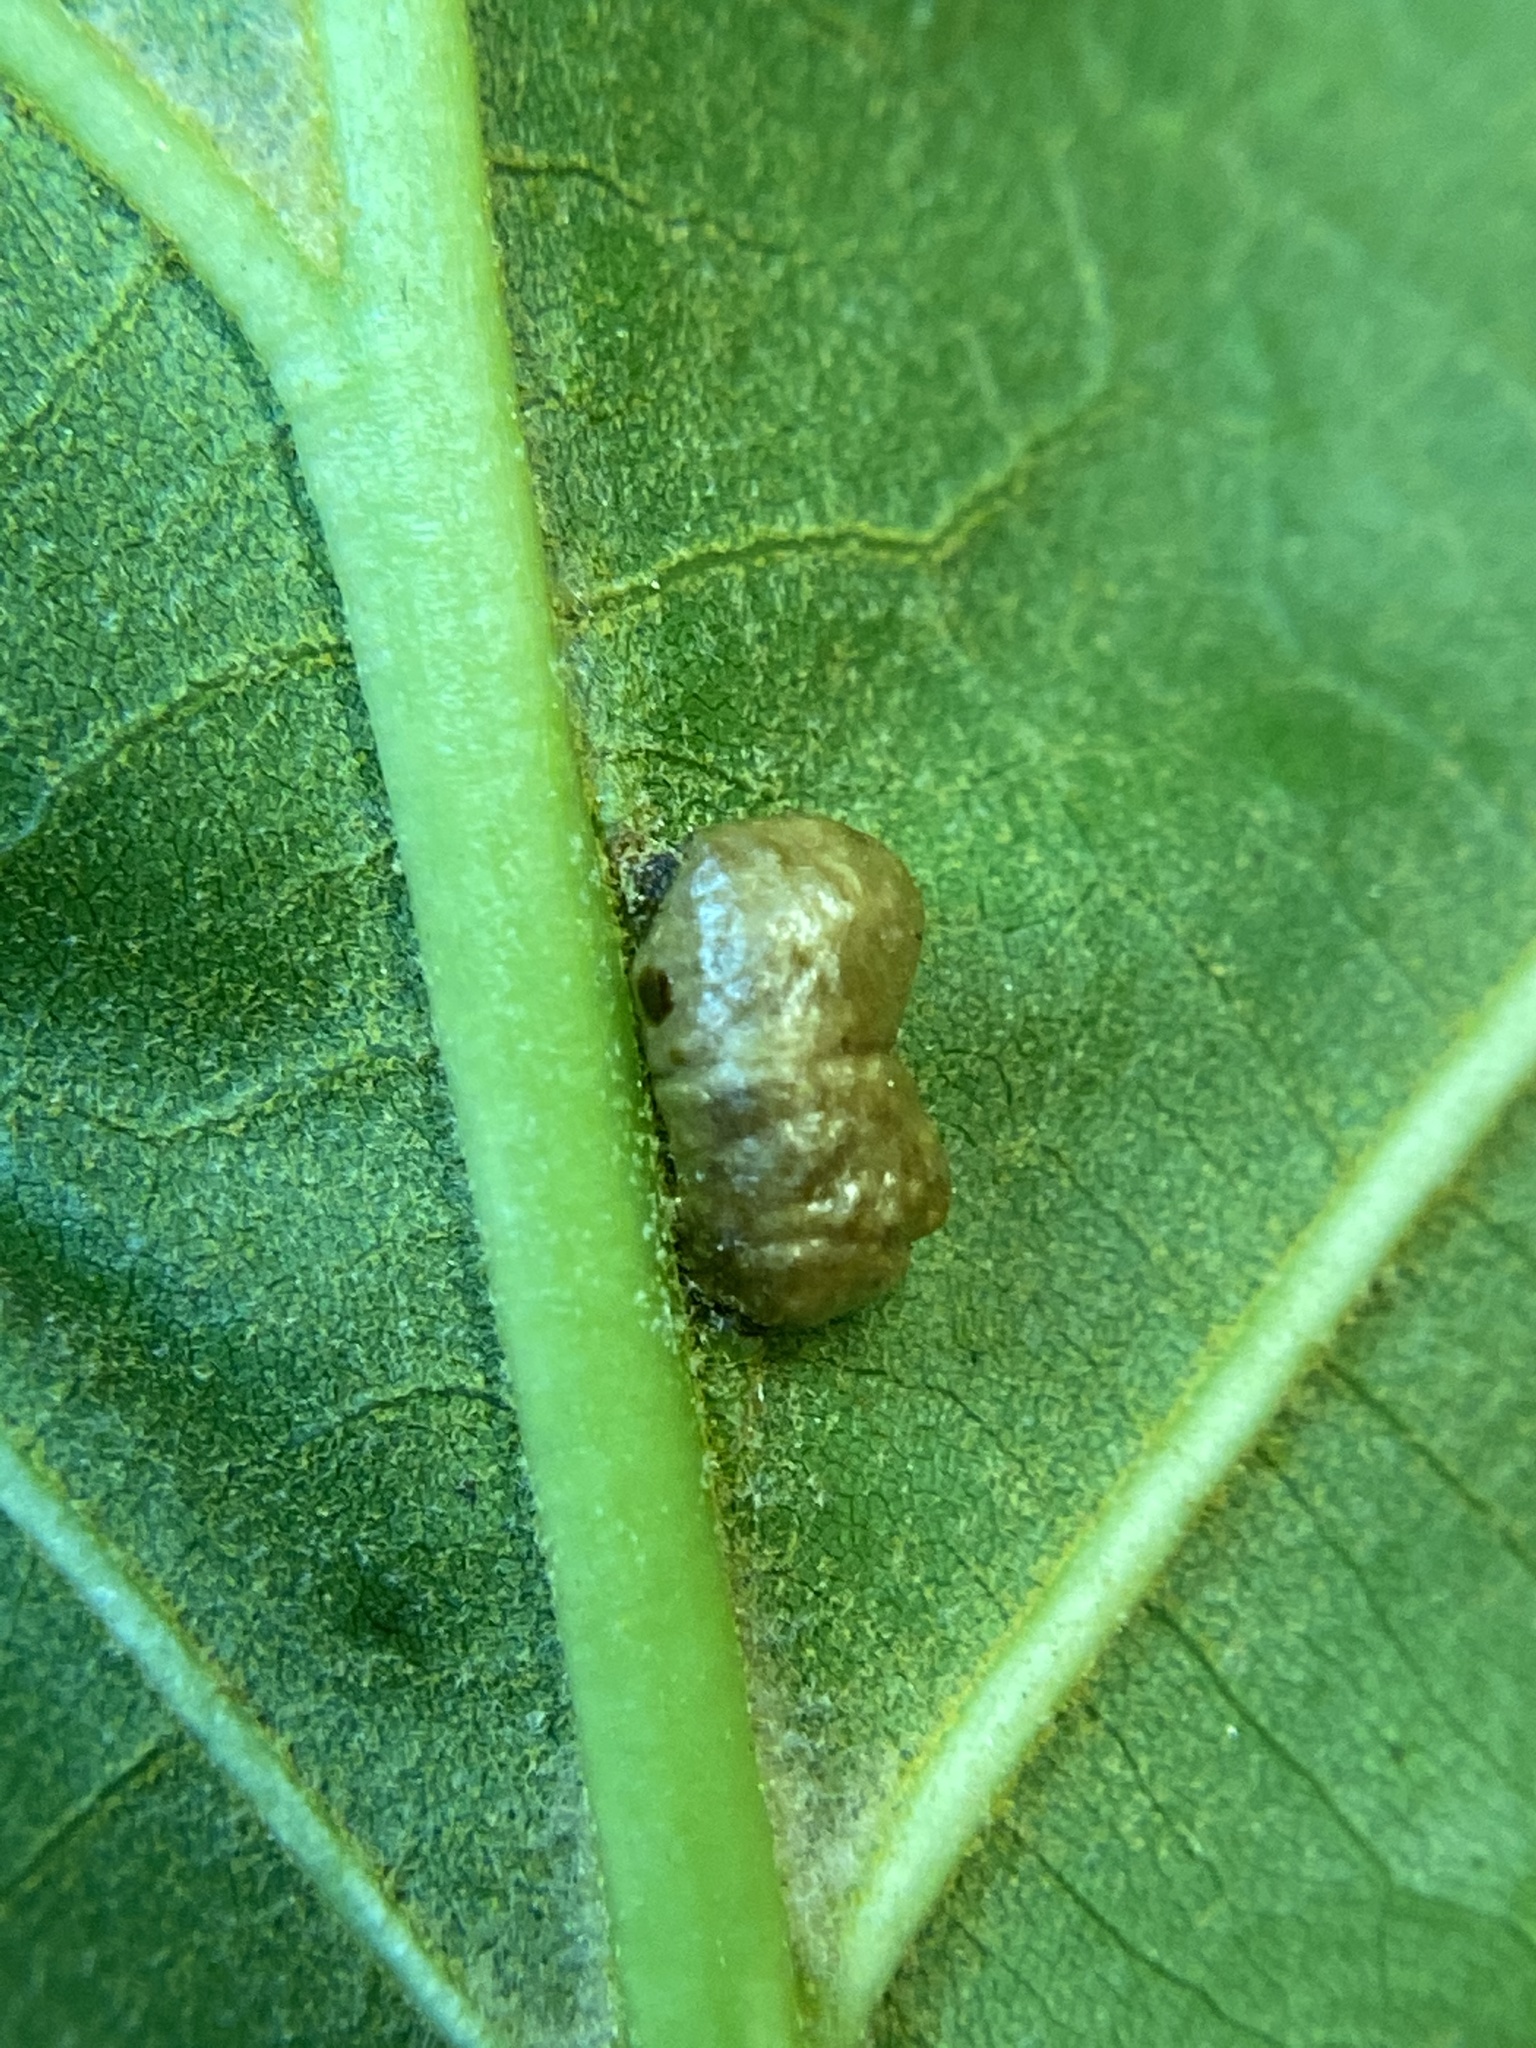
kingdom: Animalia
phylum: Arthropoda
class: Insecta
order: Diptera
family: Cecidomyiidae
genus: Macrodiplosis
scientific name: Macrodiplosis majalis
